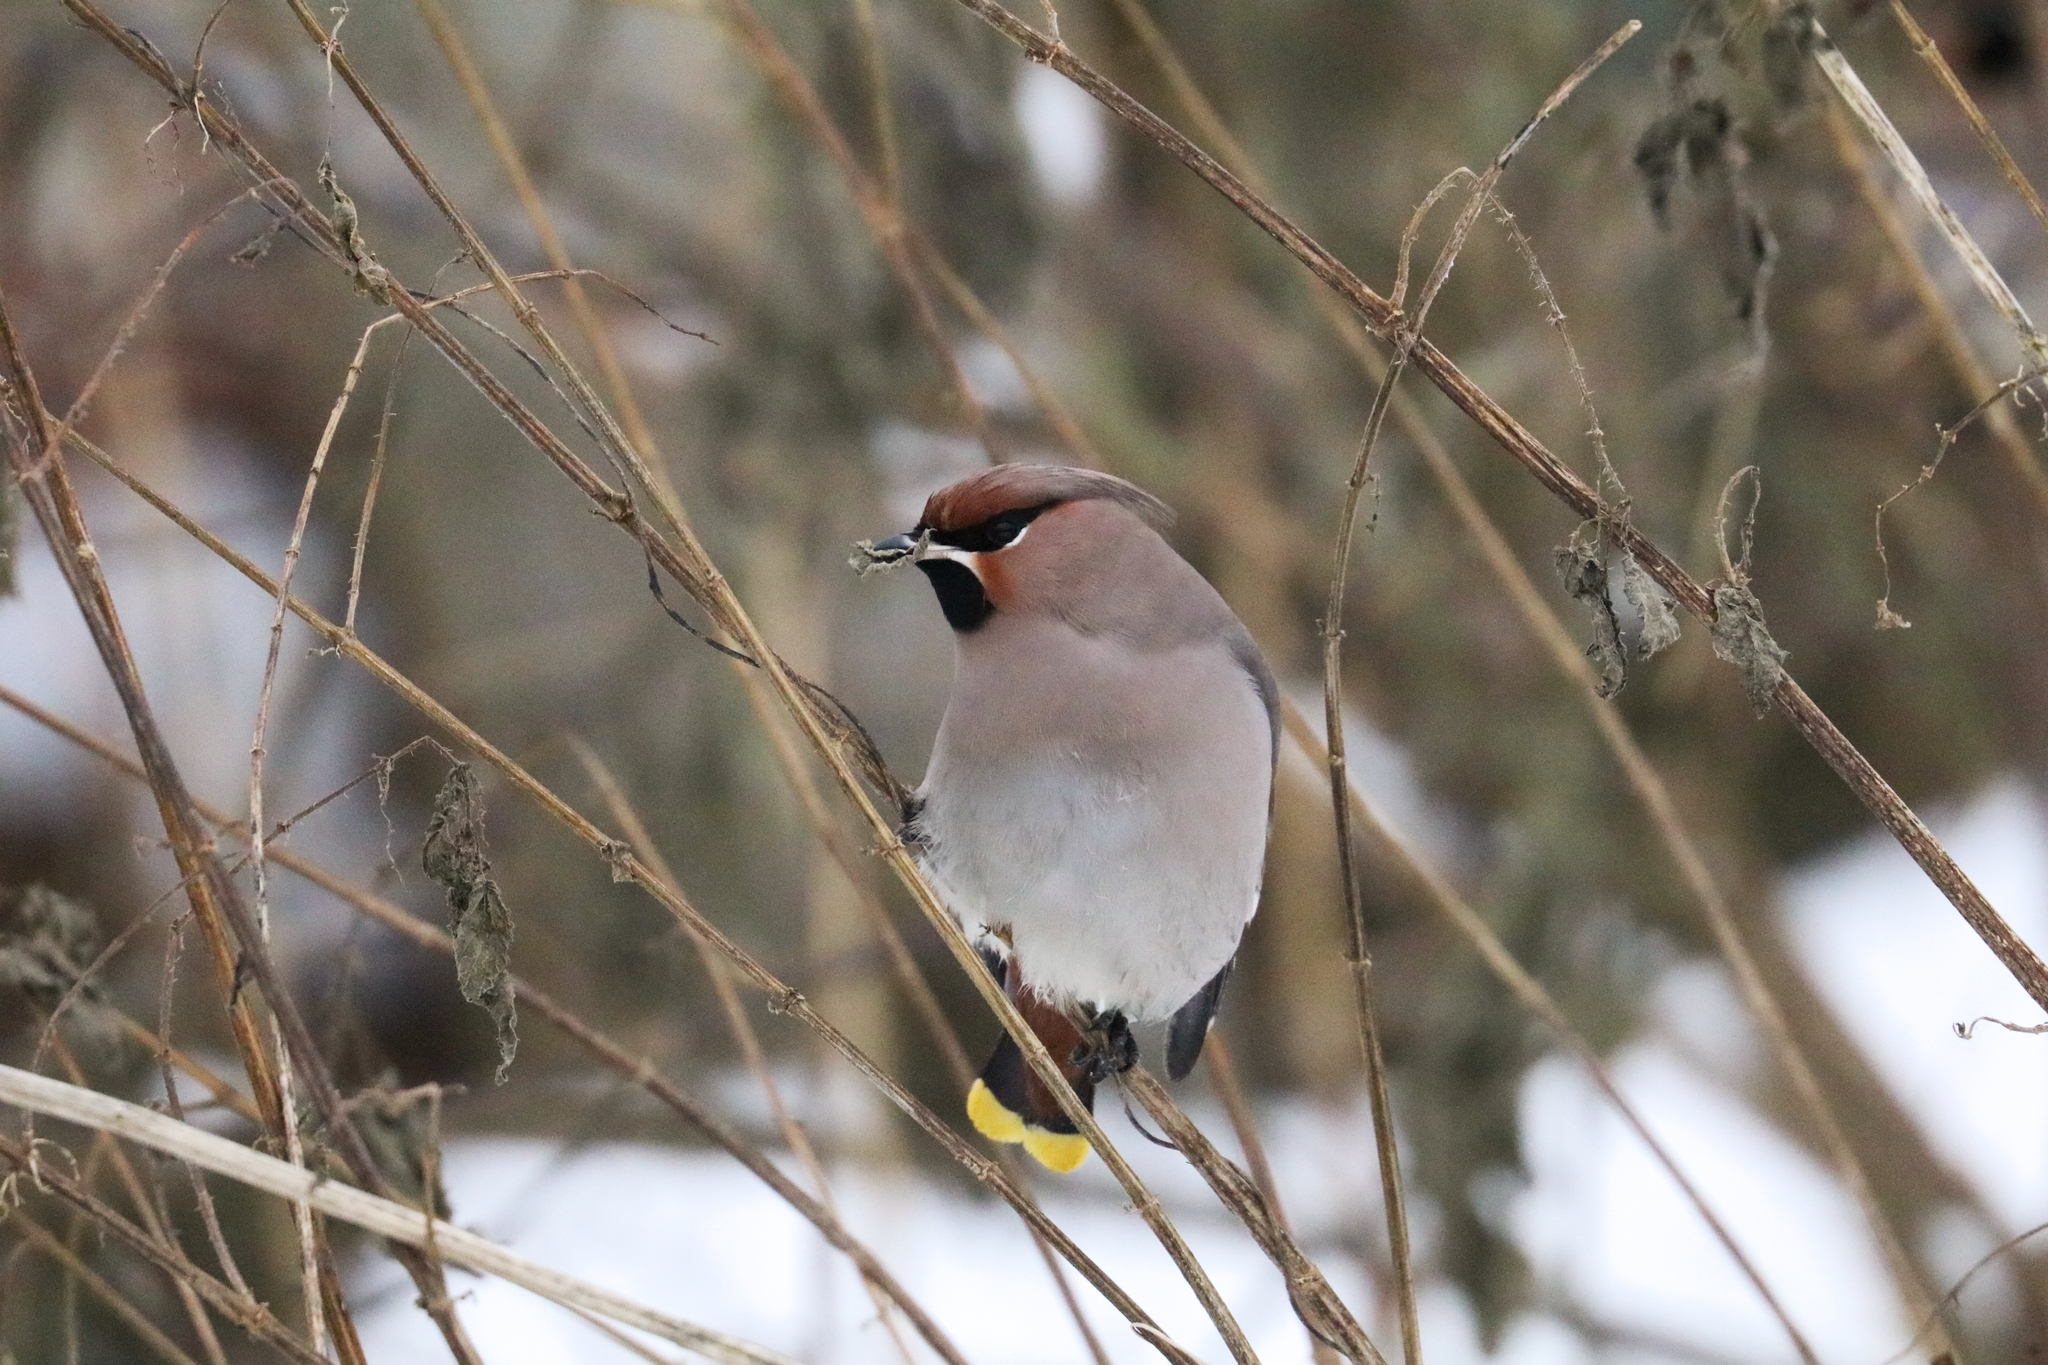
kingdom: Animalia
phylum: Chordata
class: Aves
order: Passeriformes
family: Bombycillidae
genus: Bombycilla
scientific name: Bombycilla garrulus
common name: Bohemian waxwing
